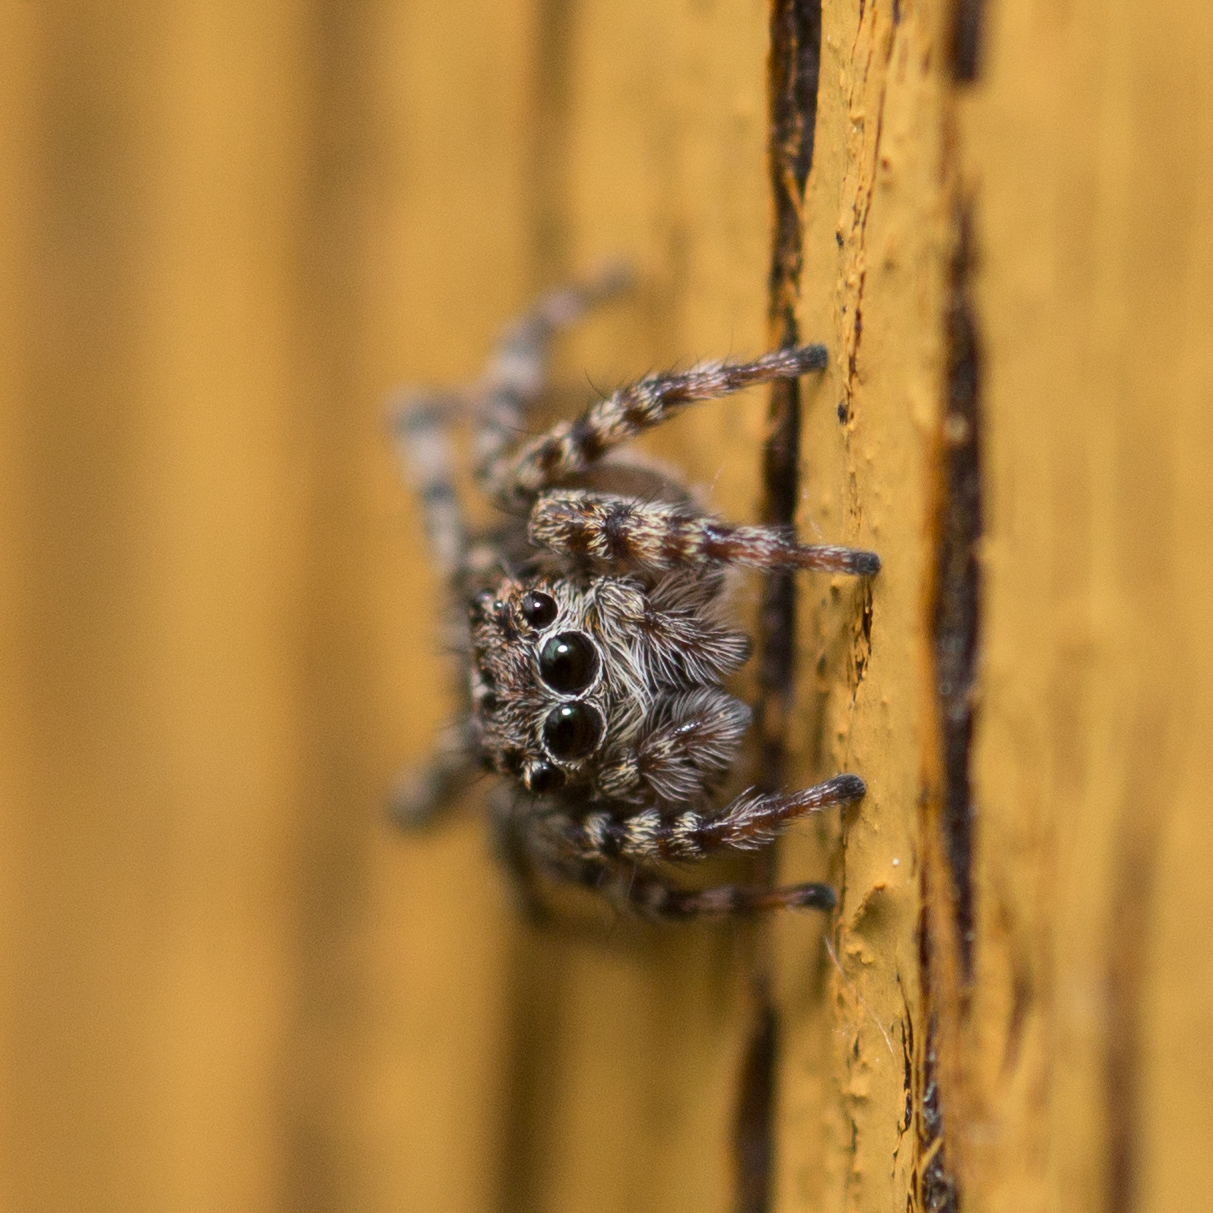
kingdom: Animalia
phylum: Arthropoda
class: Arachnida
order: Araneae
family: Salticidae
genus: Attulus
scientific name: Attulus terebratus
